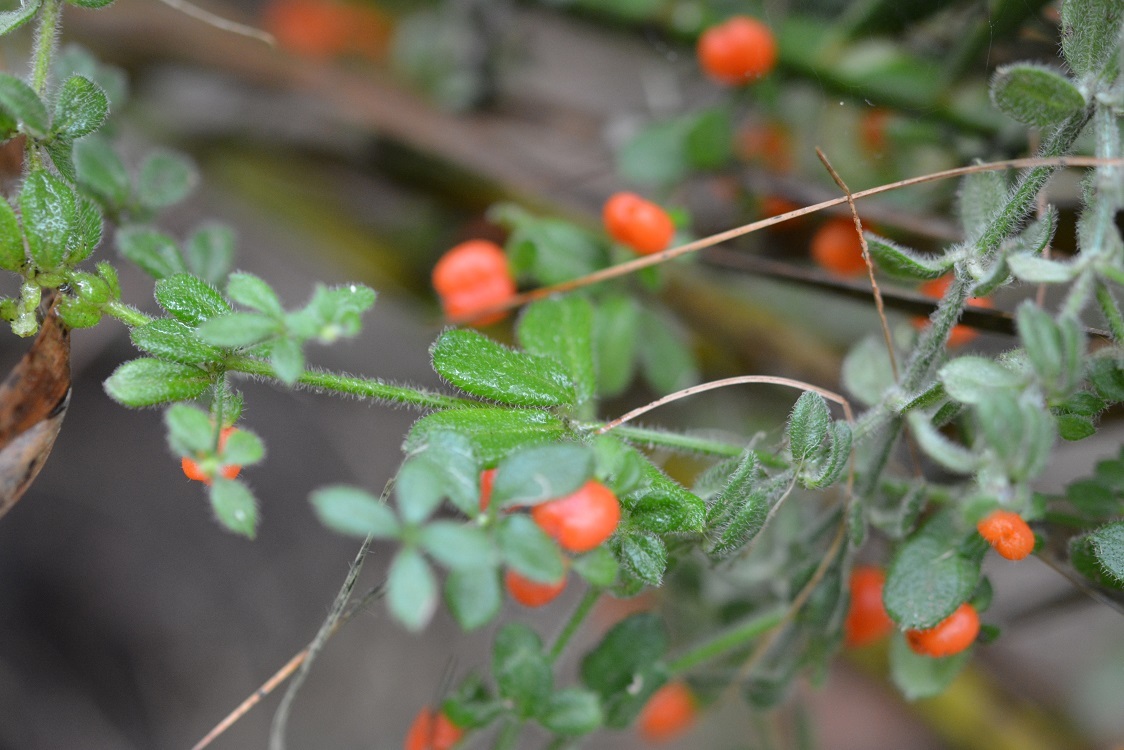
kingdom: Plantae
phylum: Tracheophyta
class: Magnoliopsida
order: Gentianales
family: Rubiaceae
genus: Galium
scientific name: Galium hypocarpium
